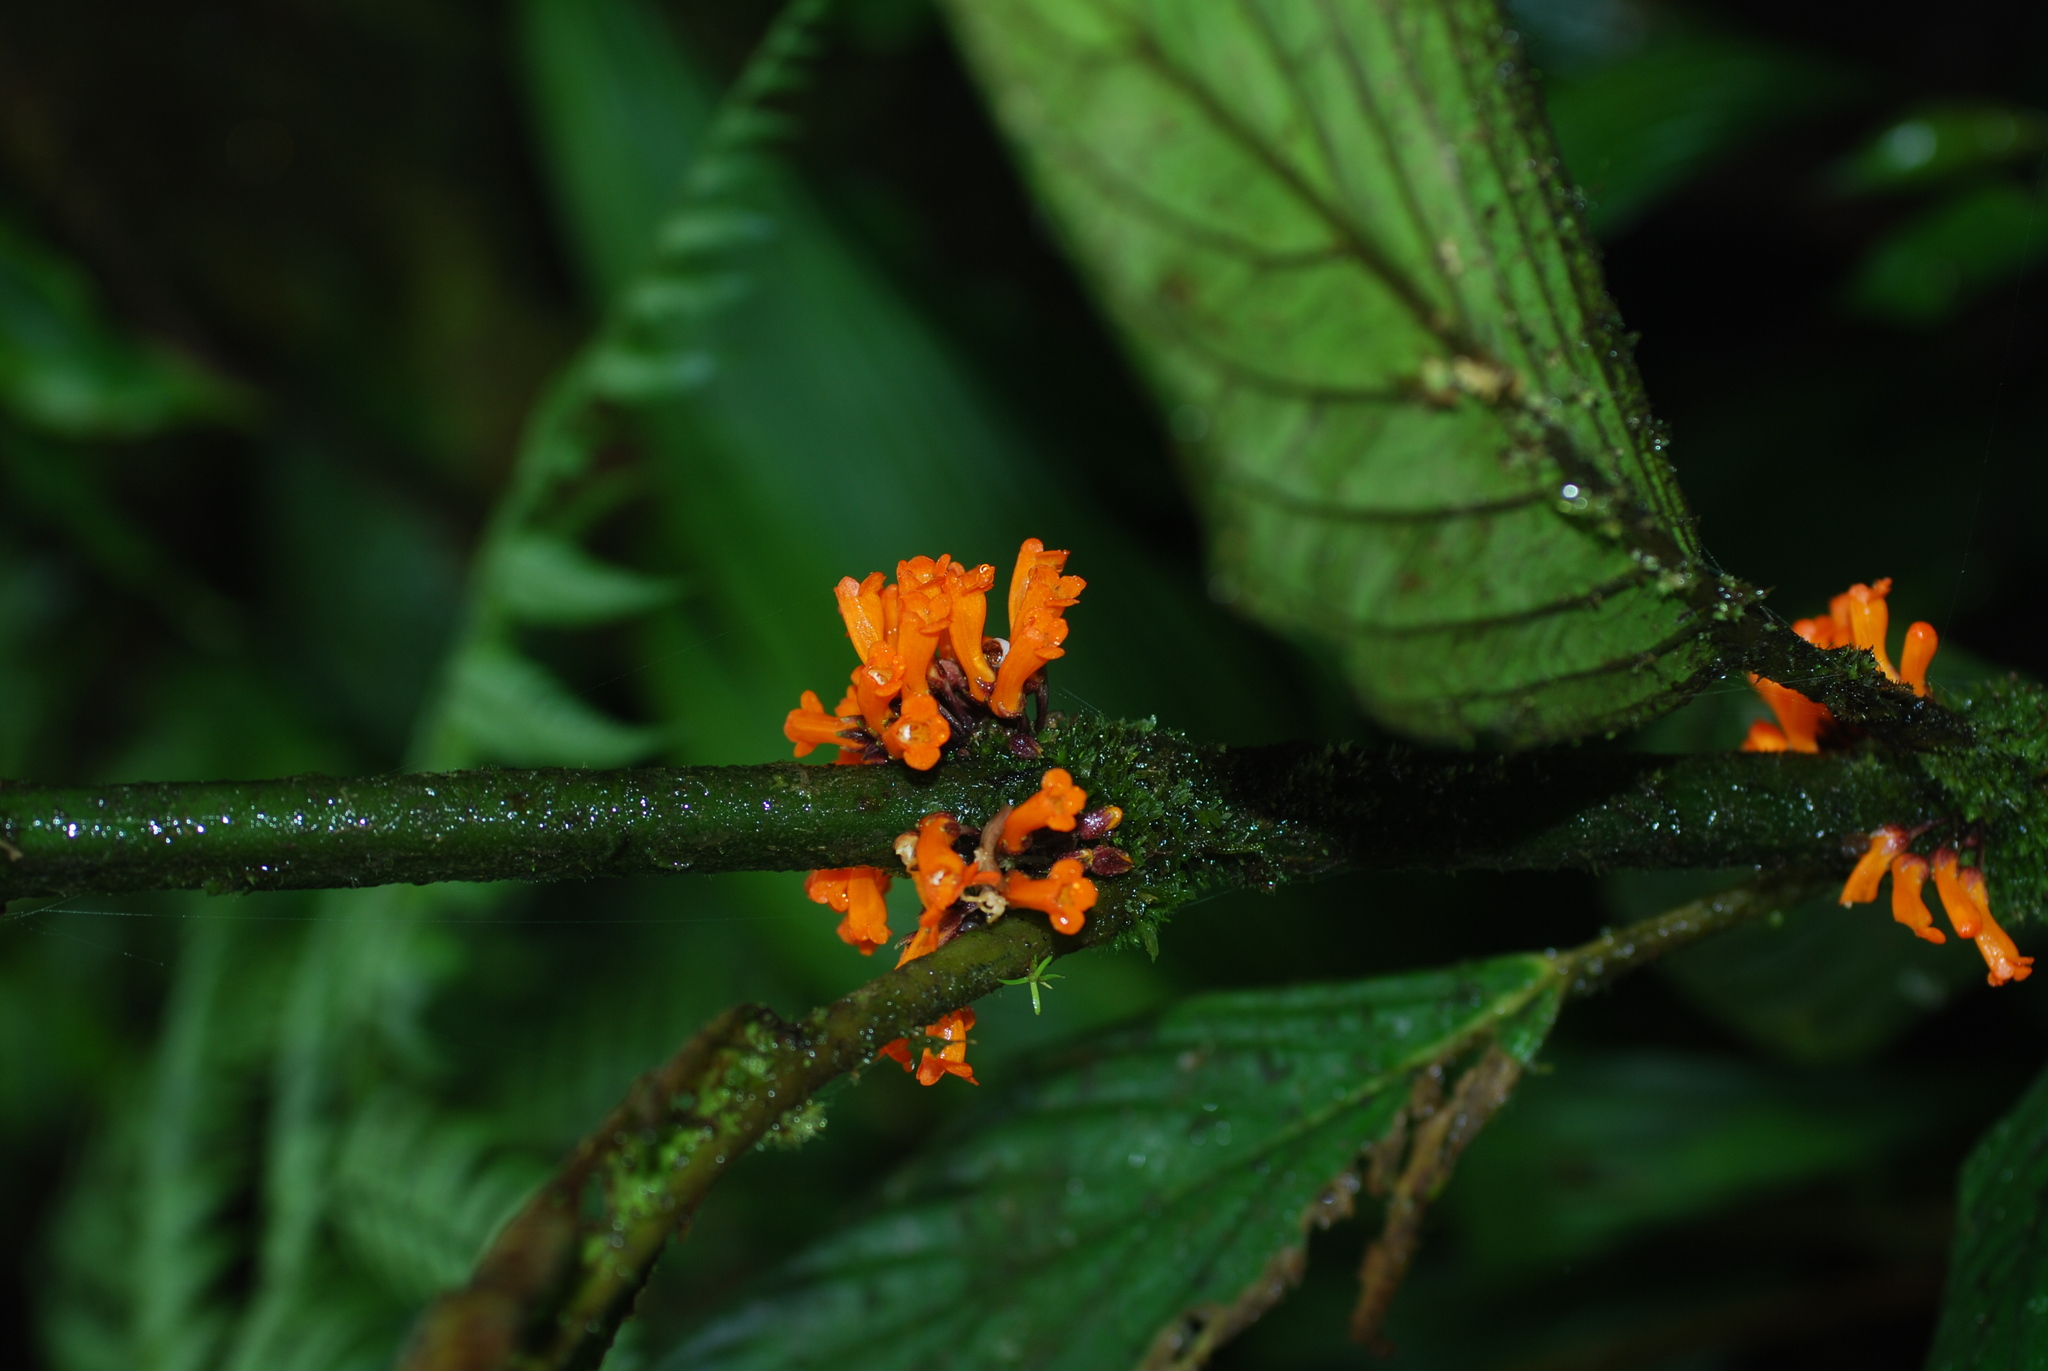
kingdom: Plantae
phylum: Tracheophyta
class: Magnoliopsida
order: Lamiales
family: Gesneriaceae
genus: Besleria
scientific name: Besleria notabilis
